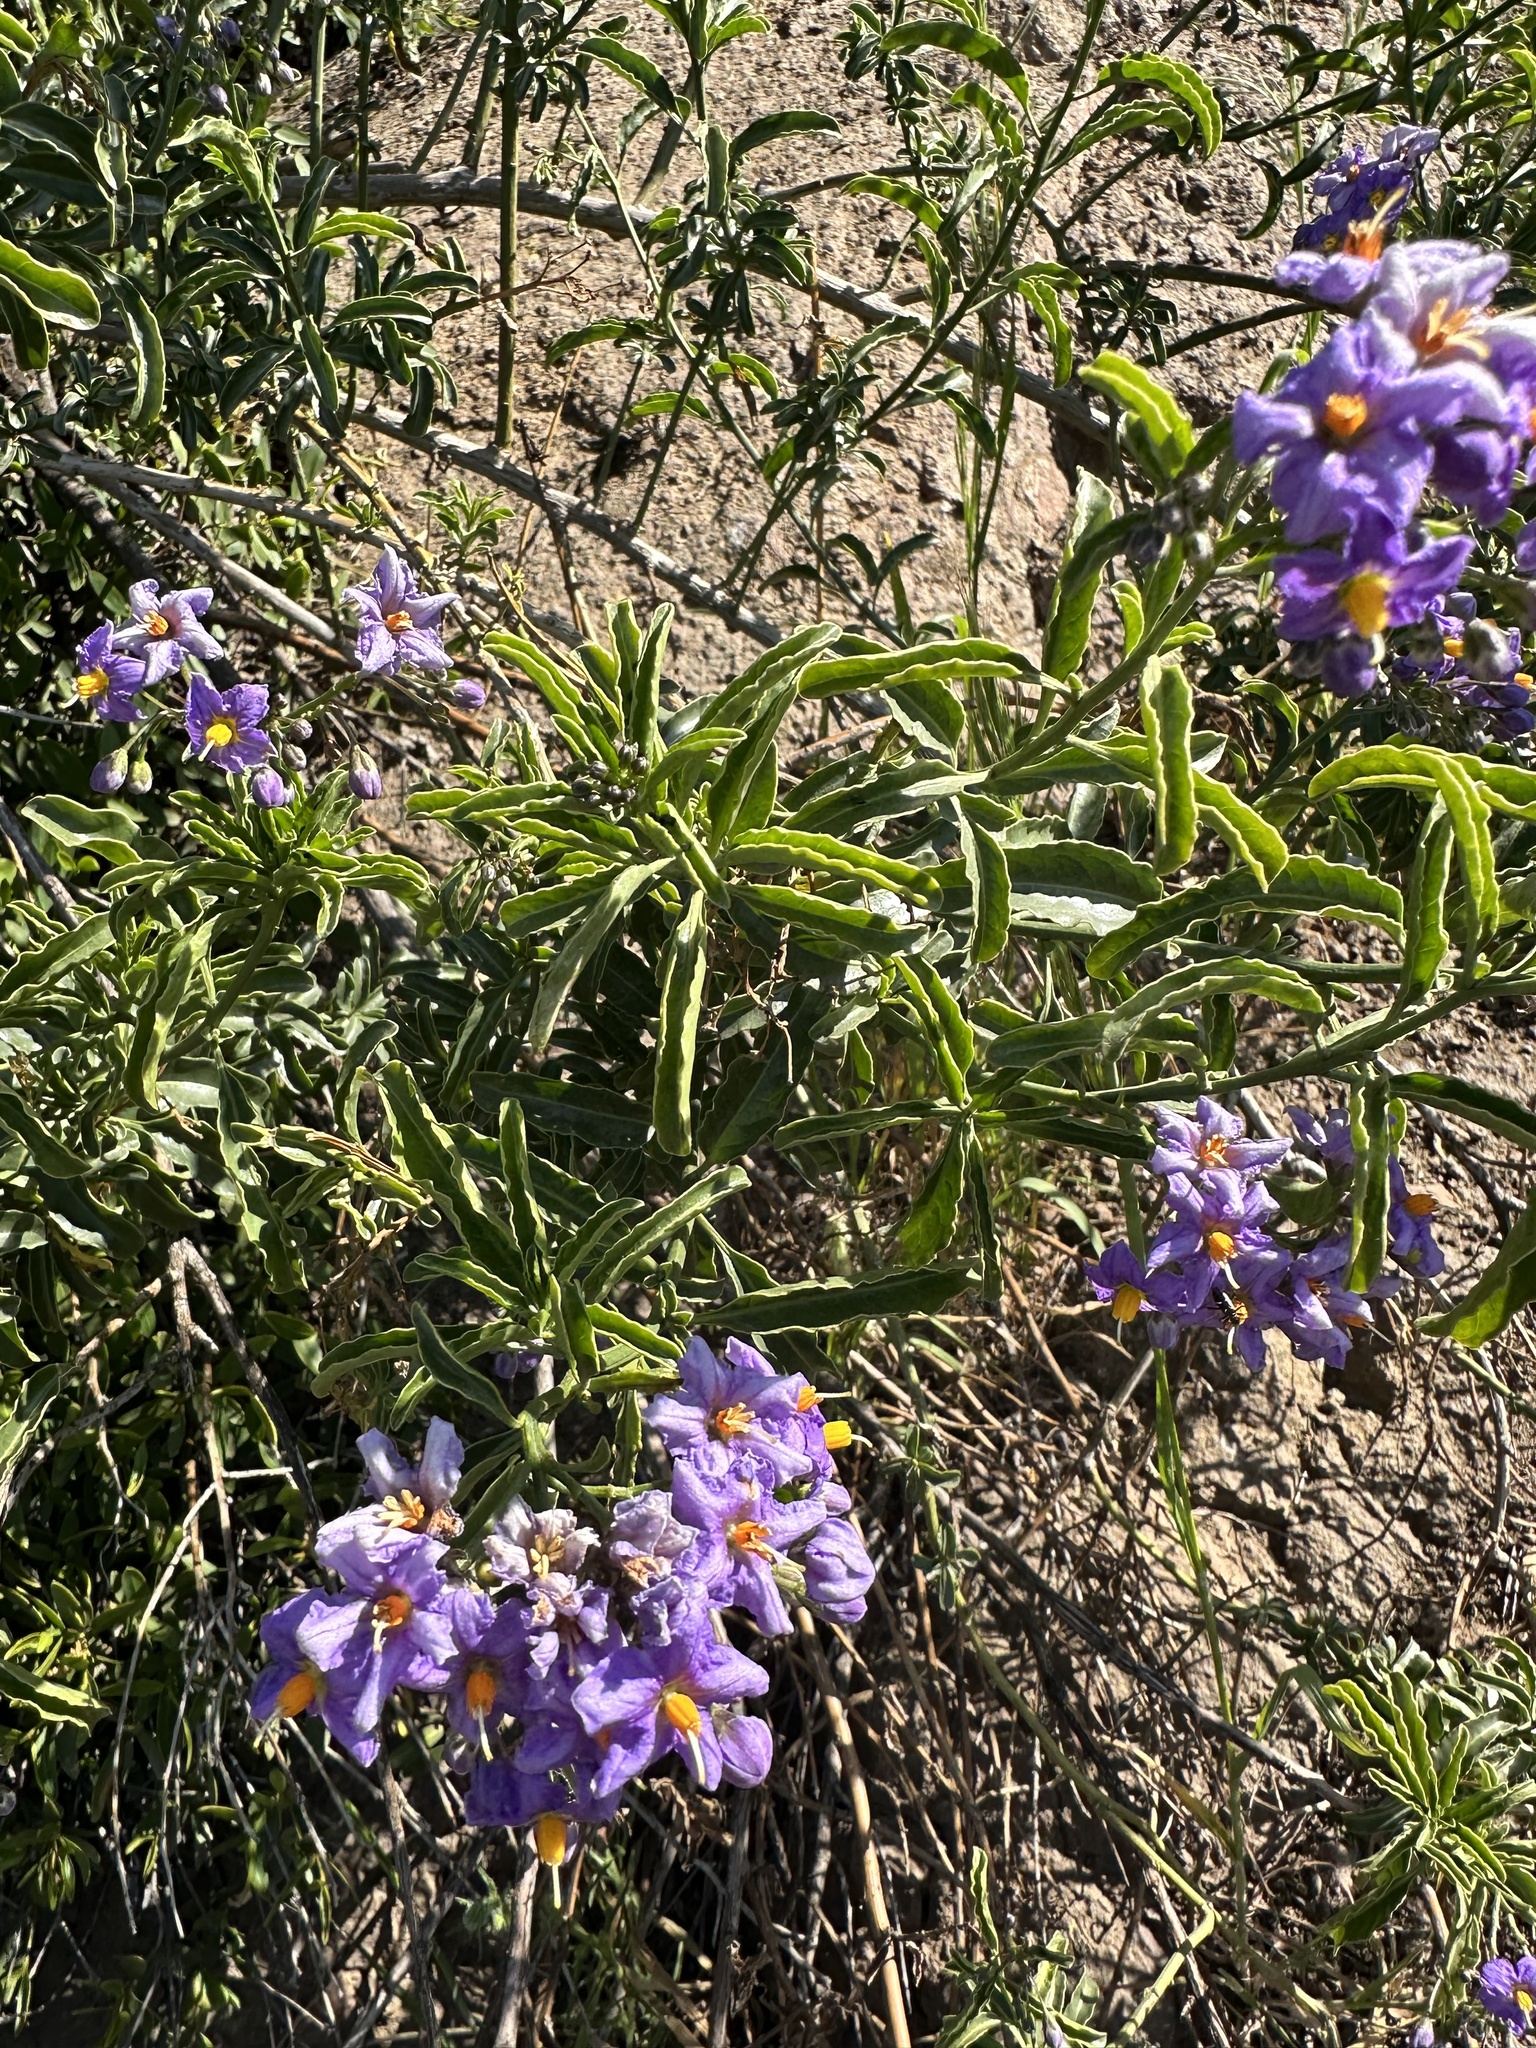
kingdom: Plantae
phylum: Tracheophyta
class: Magnoliopsida
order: Solanales
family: Solanaceae
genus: Solanum
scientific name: Solanum crispum
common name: Chilean nightshade
